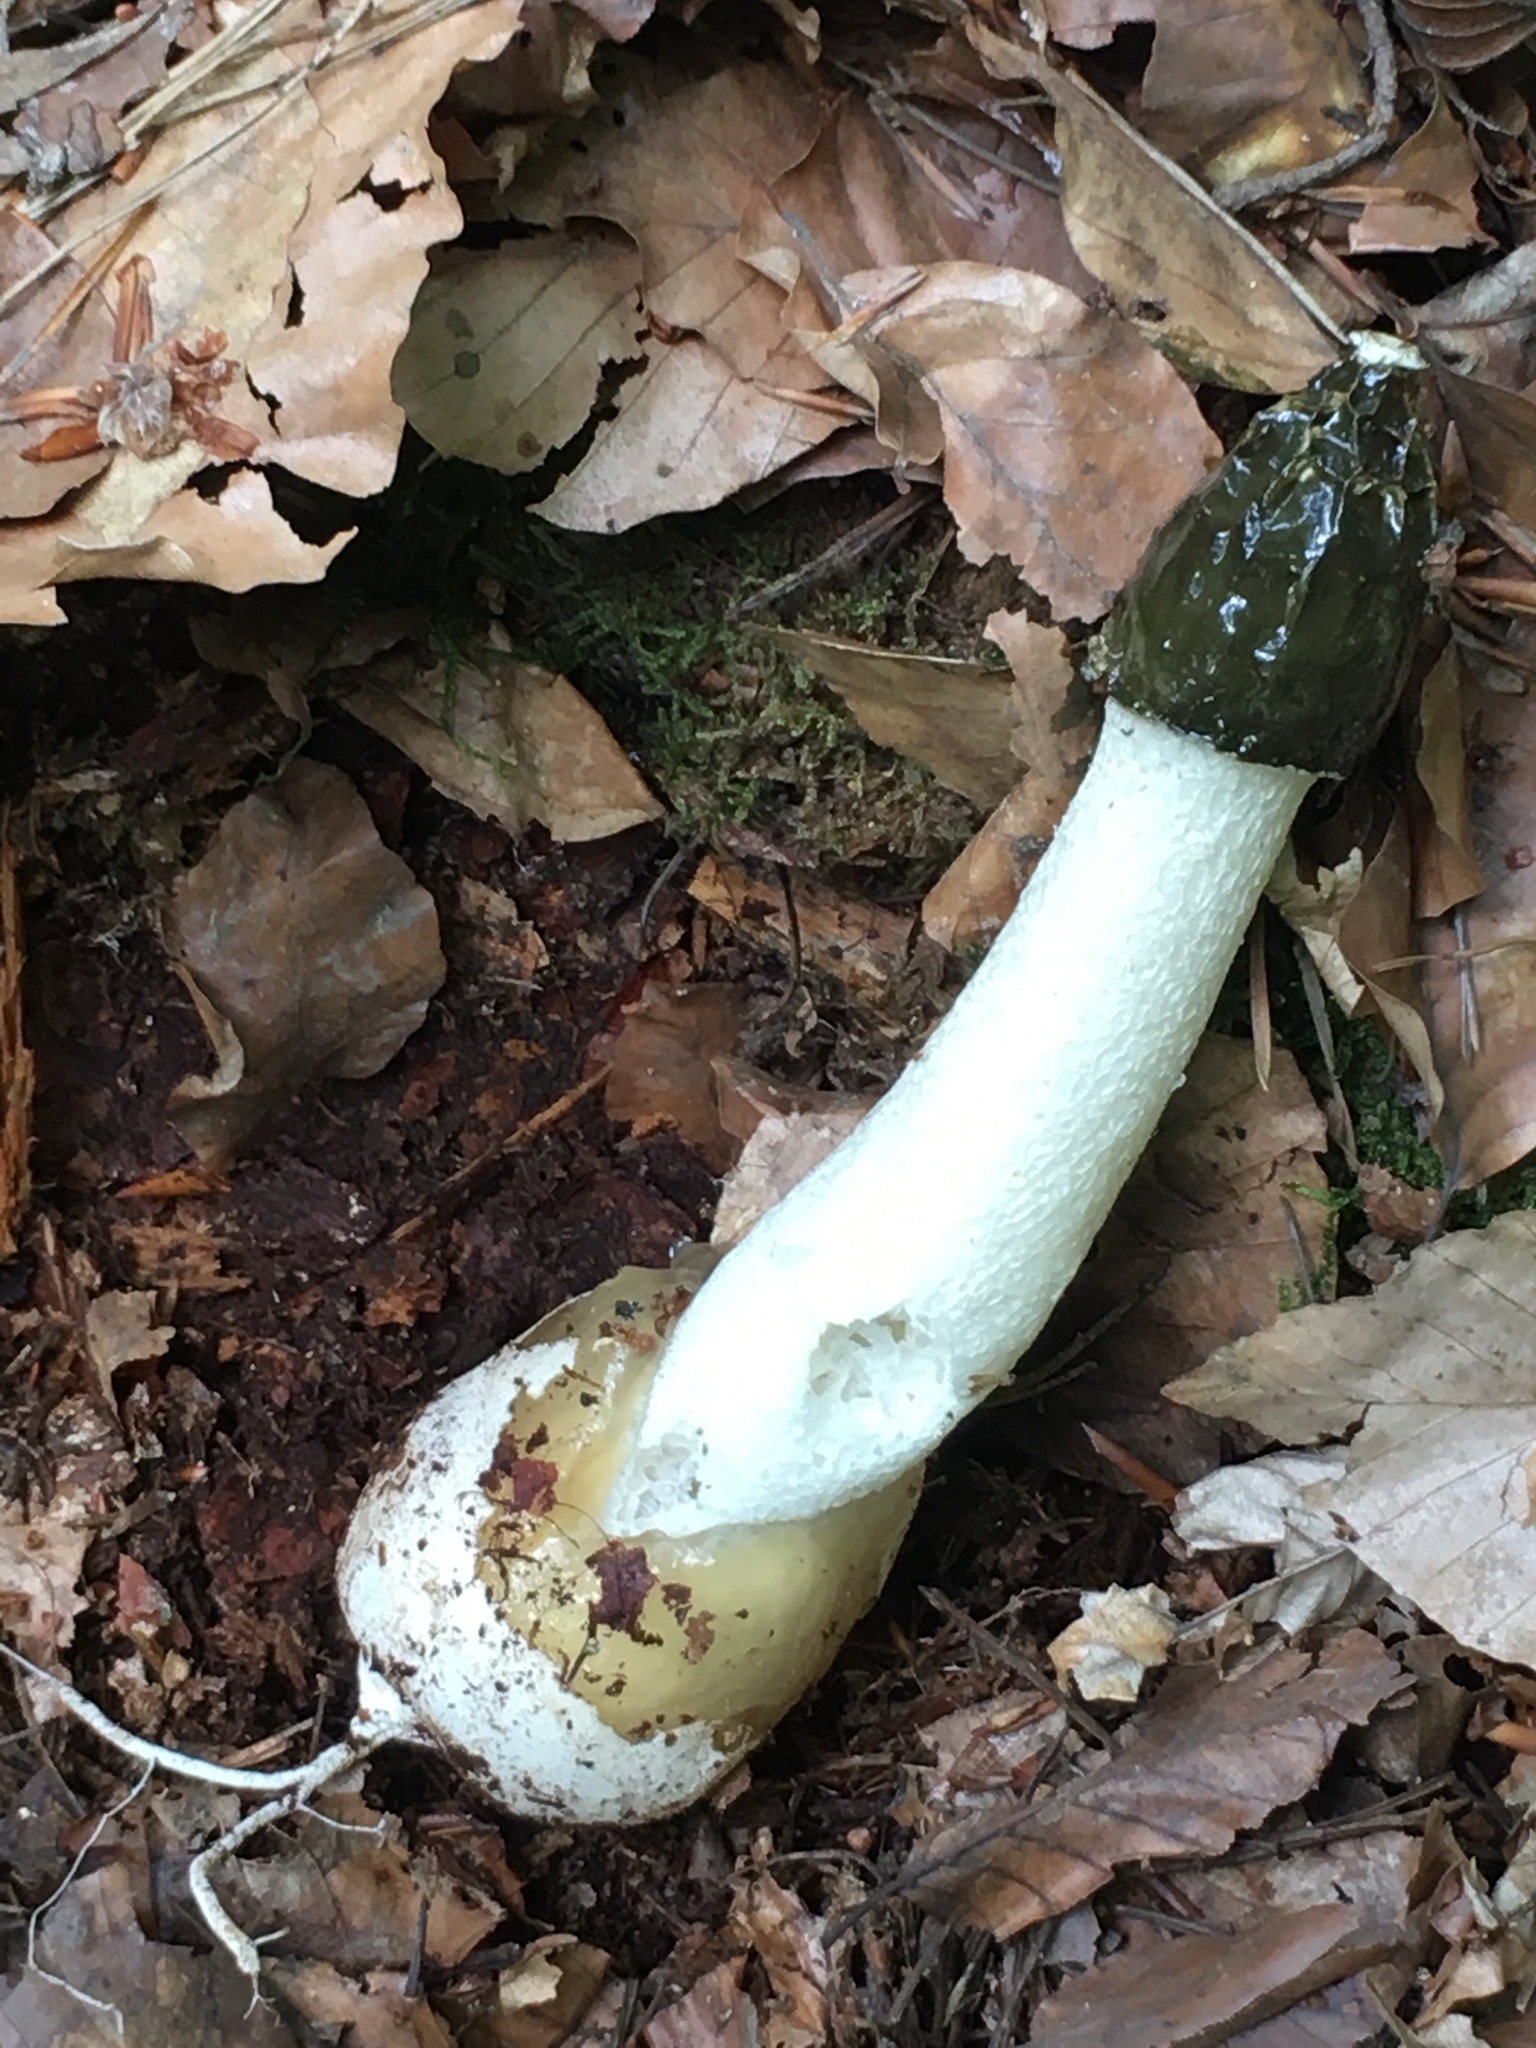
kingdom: Fungi
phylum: Basidiomycota
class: Agaricomycetes
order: Phallales
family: Phallaceae
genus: Phallus
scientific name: Phallus impudicus
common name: Common stinkhorn
